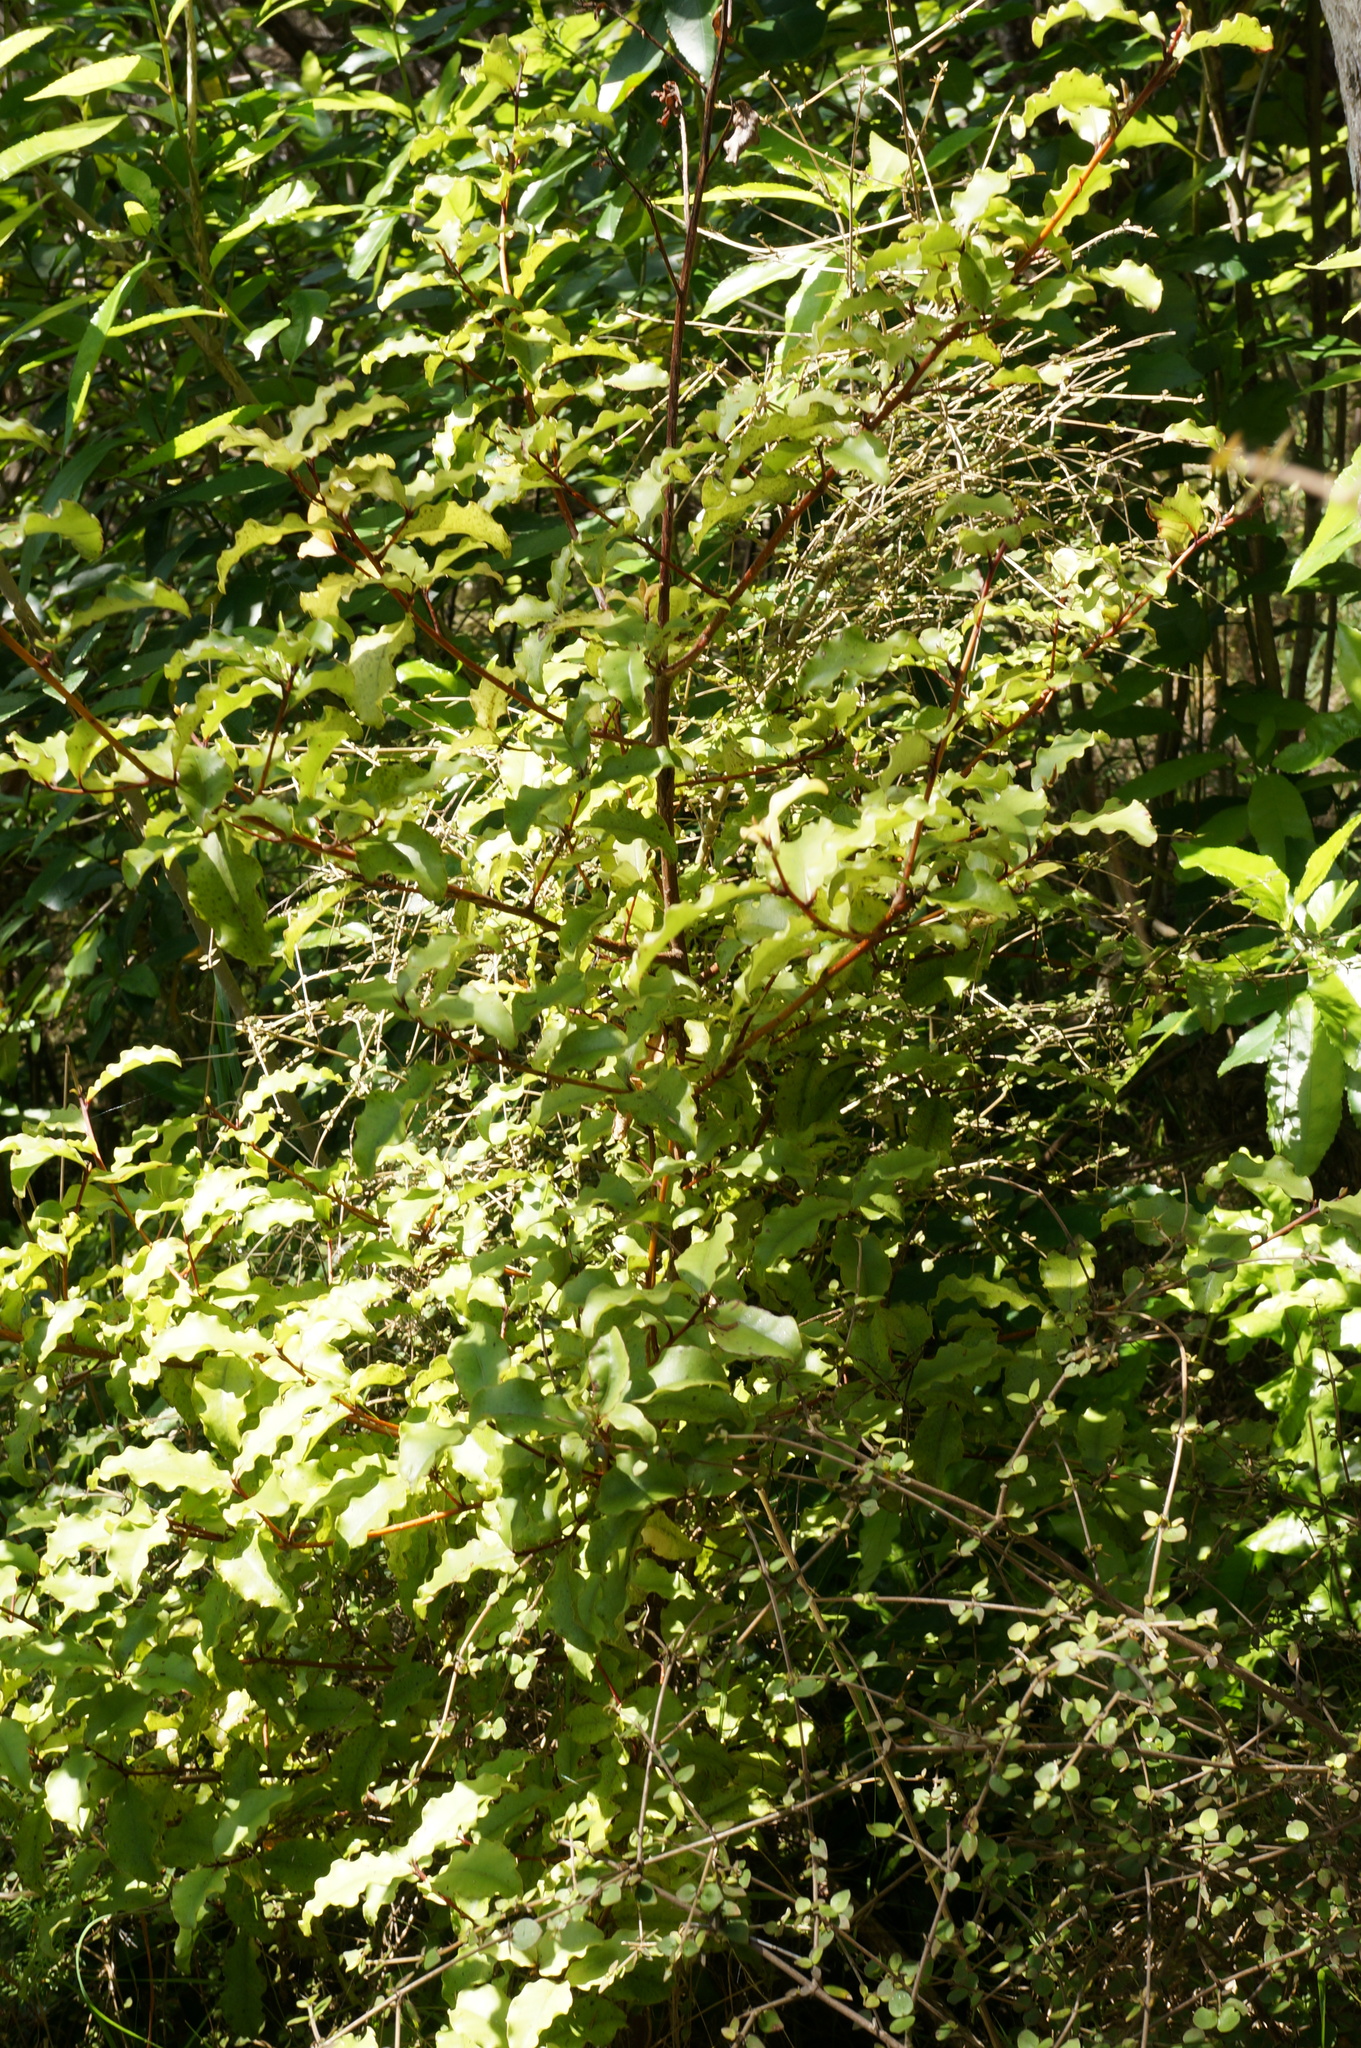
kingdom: Plantae
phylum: Tracheophyta
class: Magnoliopsida
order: Ericales
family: Primulaceae
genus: Myrsine
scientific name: Myrsine australis
